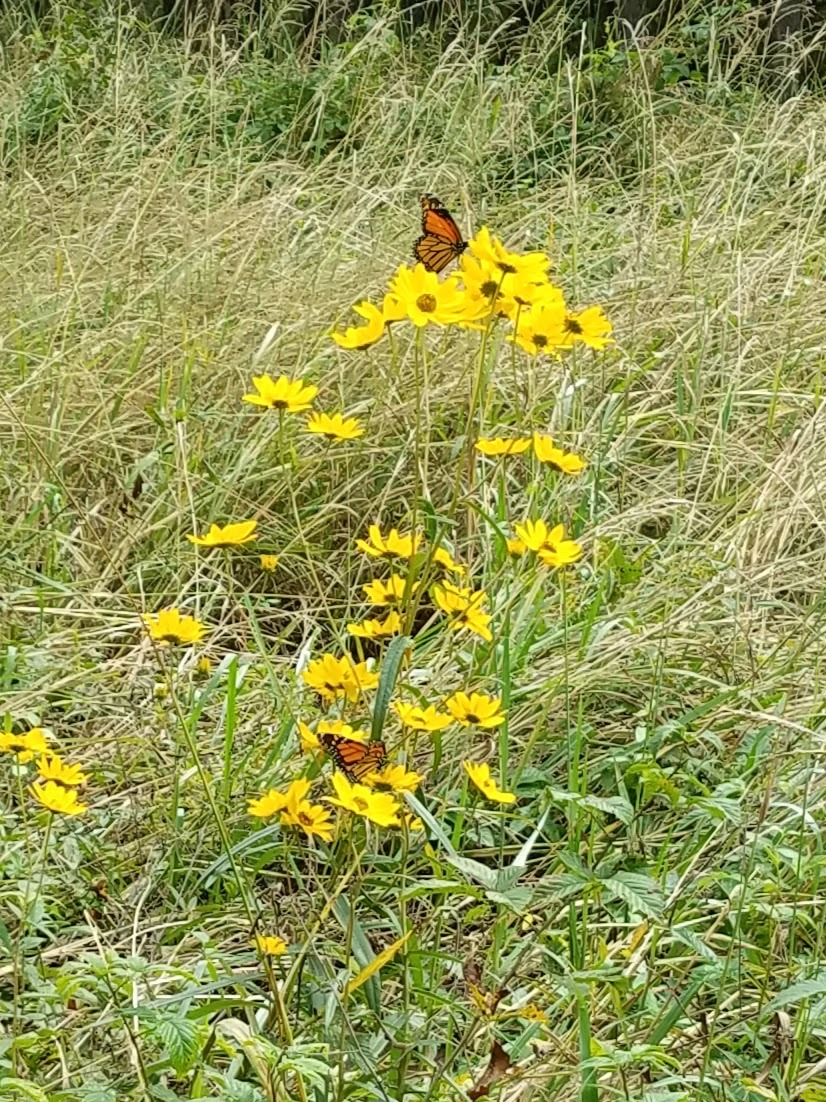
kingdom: Animalia
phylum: Arthropoda
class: Insecta
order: Lepidoptera
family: Nymphalidae
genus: Danaus
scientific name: Danaus plexippus
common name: Monarch
